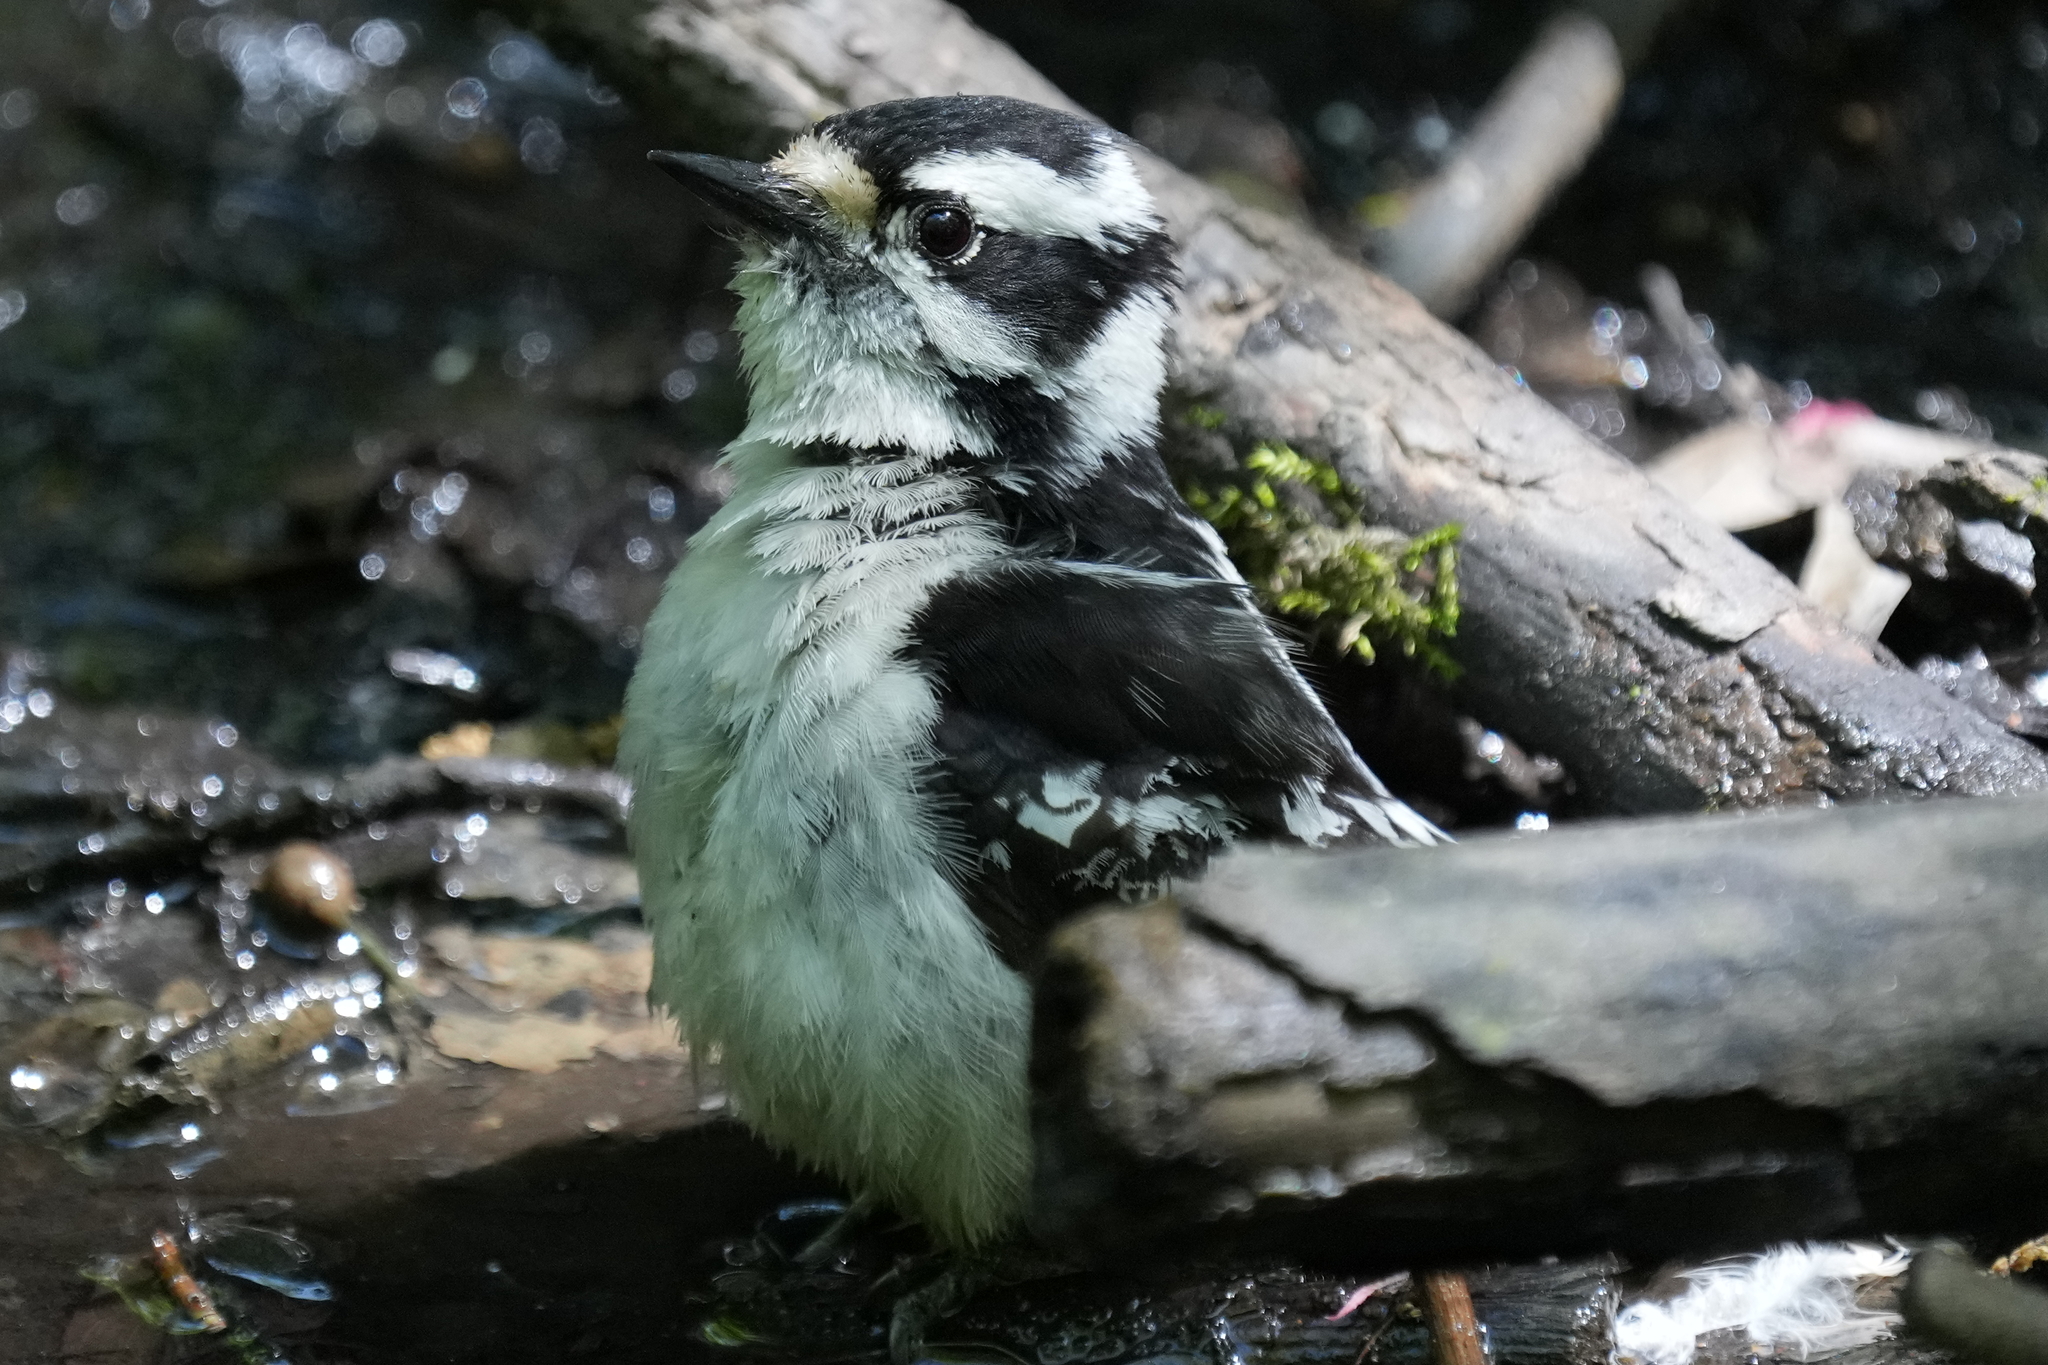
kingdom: Animalia
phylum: Chordata
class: Aves
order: Piciformes
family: Picidae
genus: Dryobates
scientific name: Dryobates pubescens
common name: Downy woodpecker
